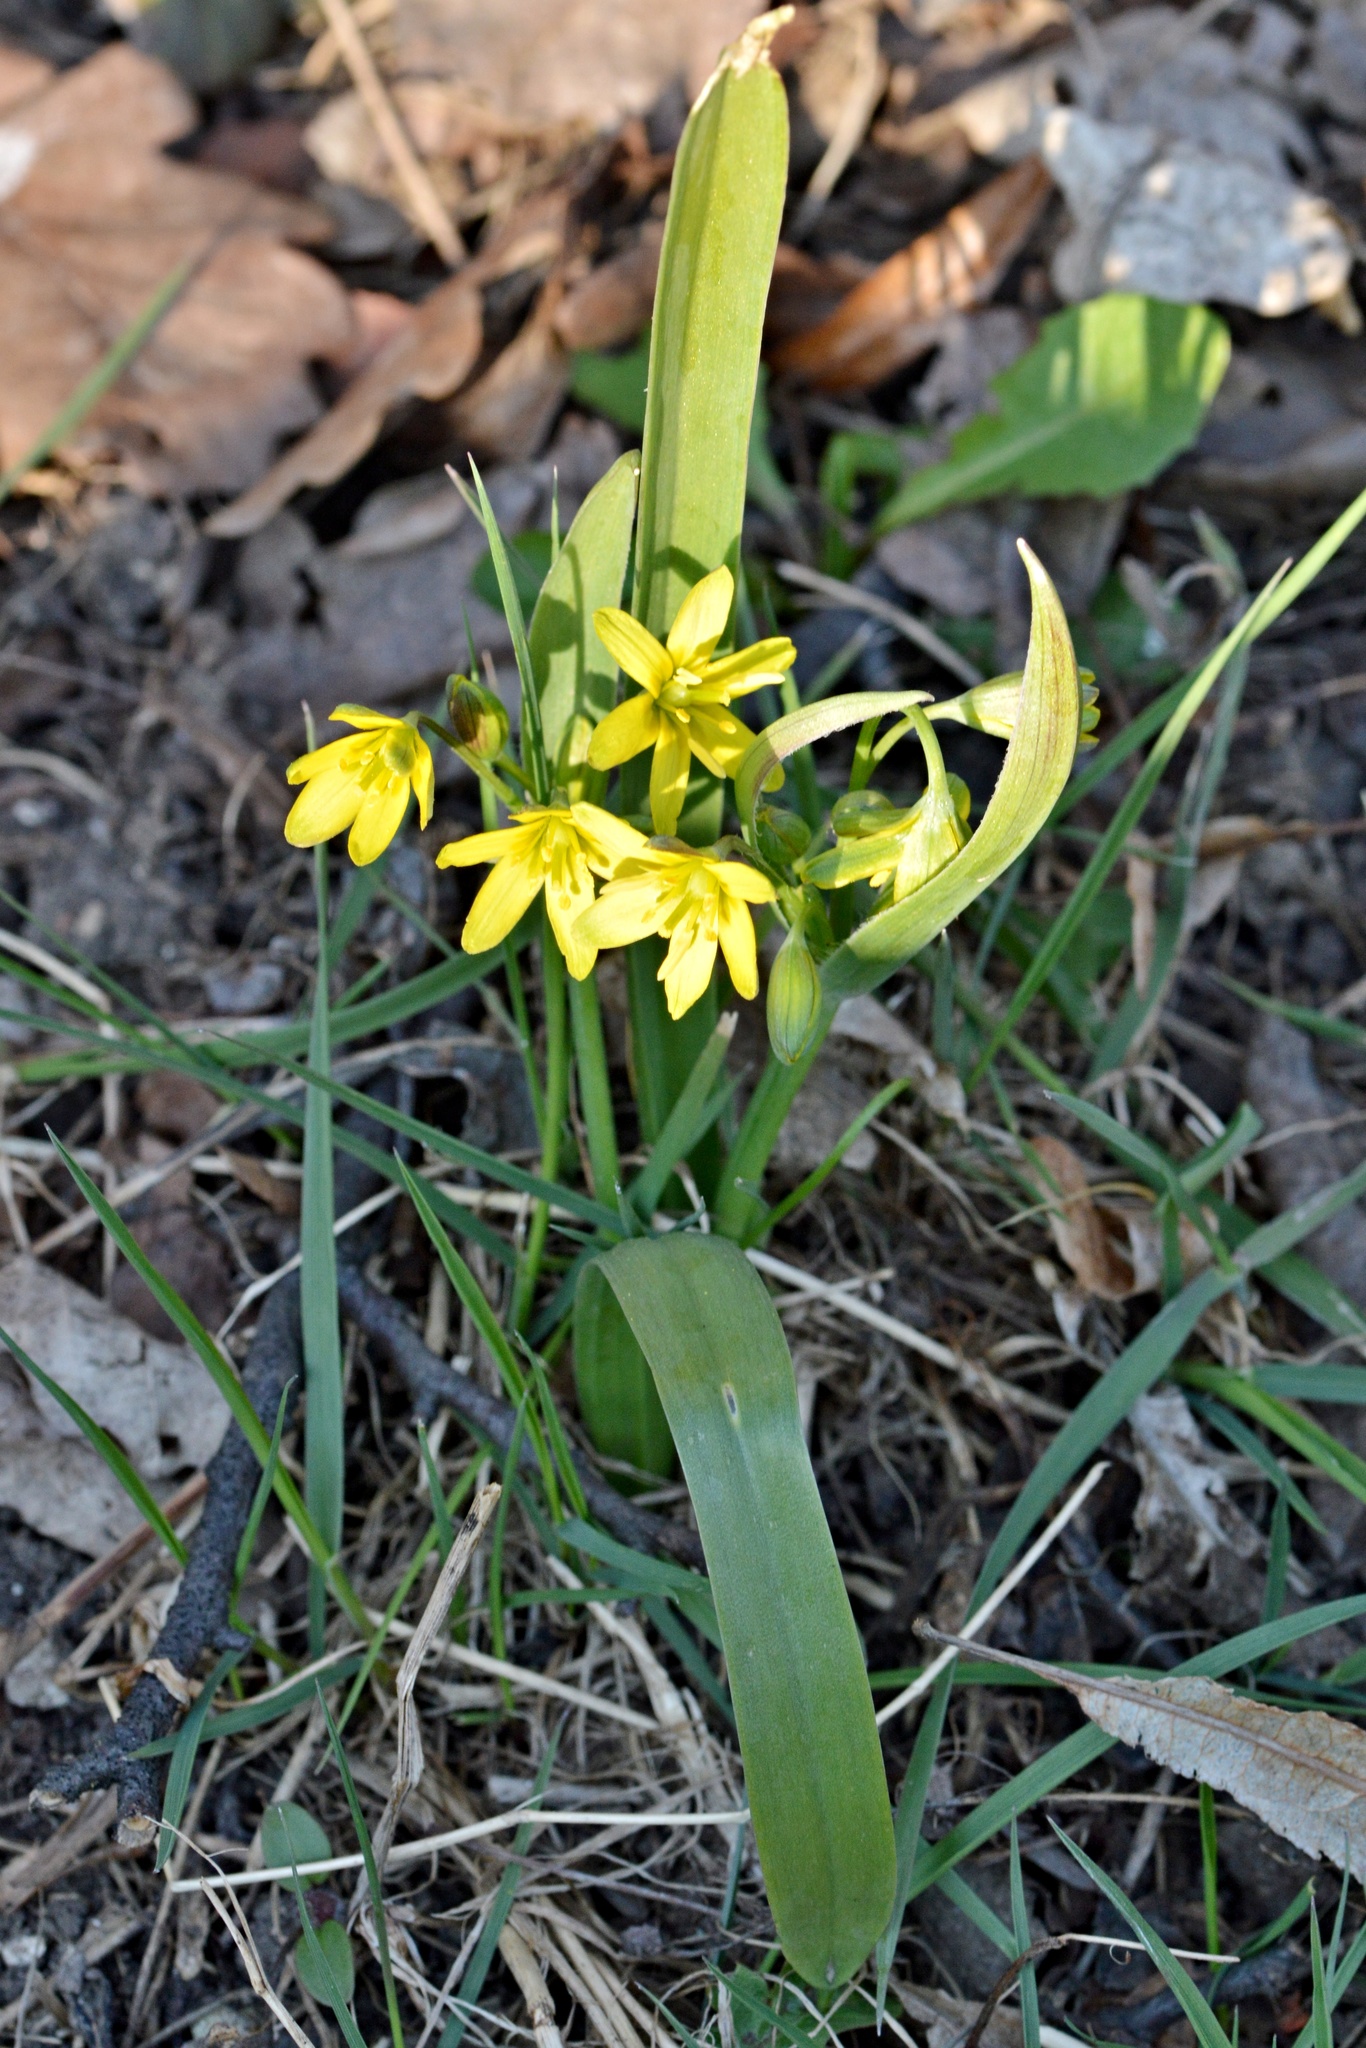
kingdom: Plantae
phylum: Tracheophyta
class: Liliopsida
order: Liliales
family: Liliaceae
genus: Gagea
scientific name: Gagea lutea
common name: Yellow star-of-bethlehem
